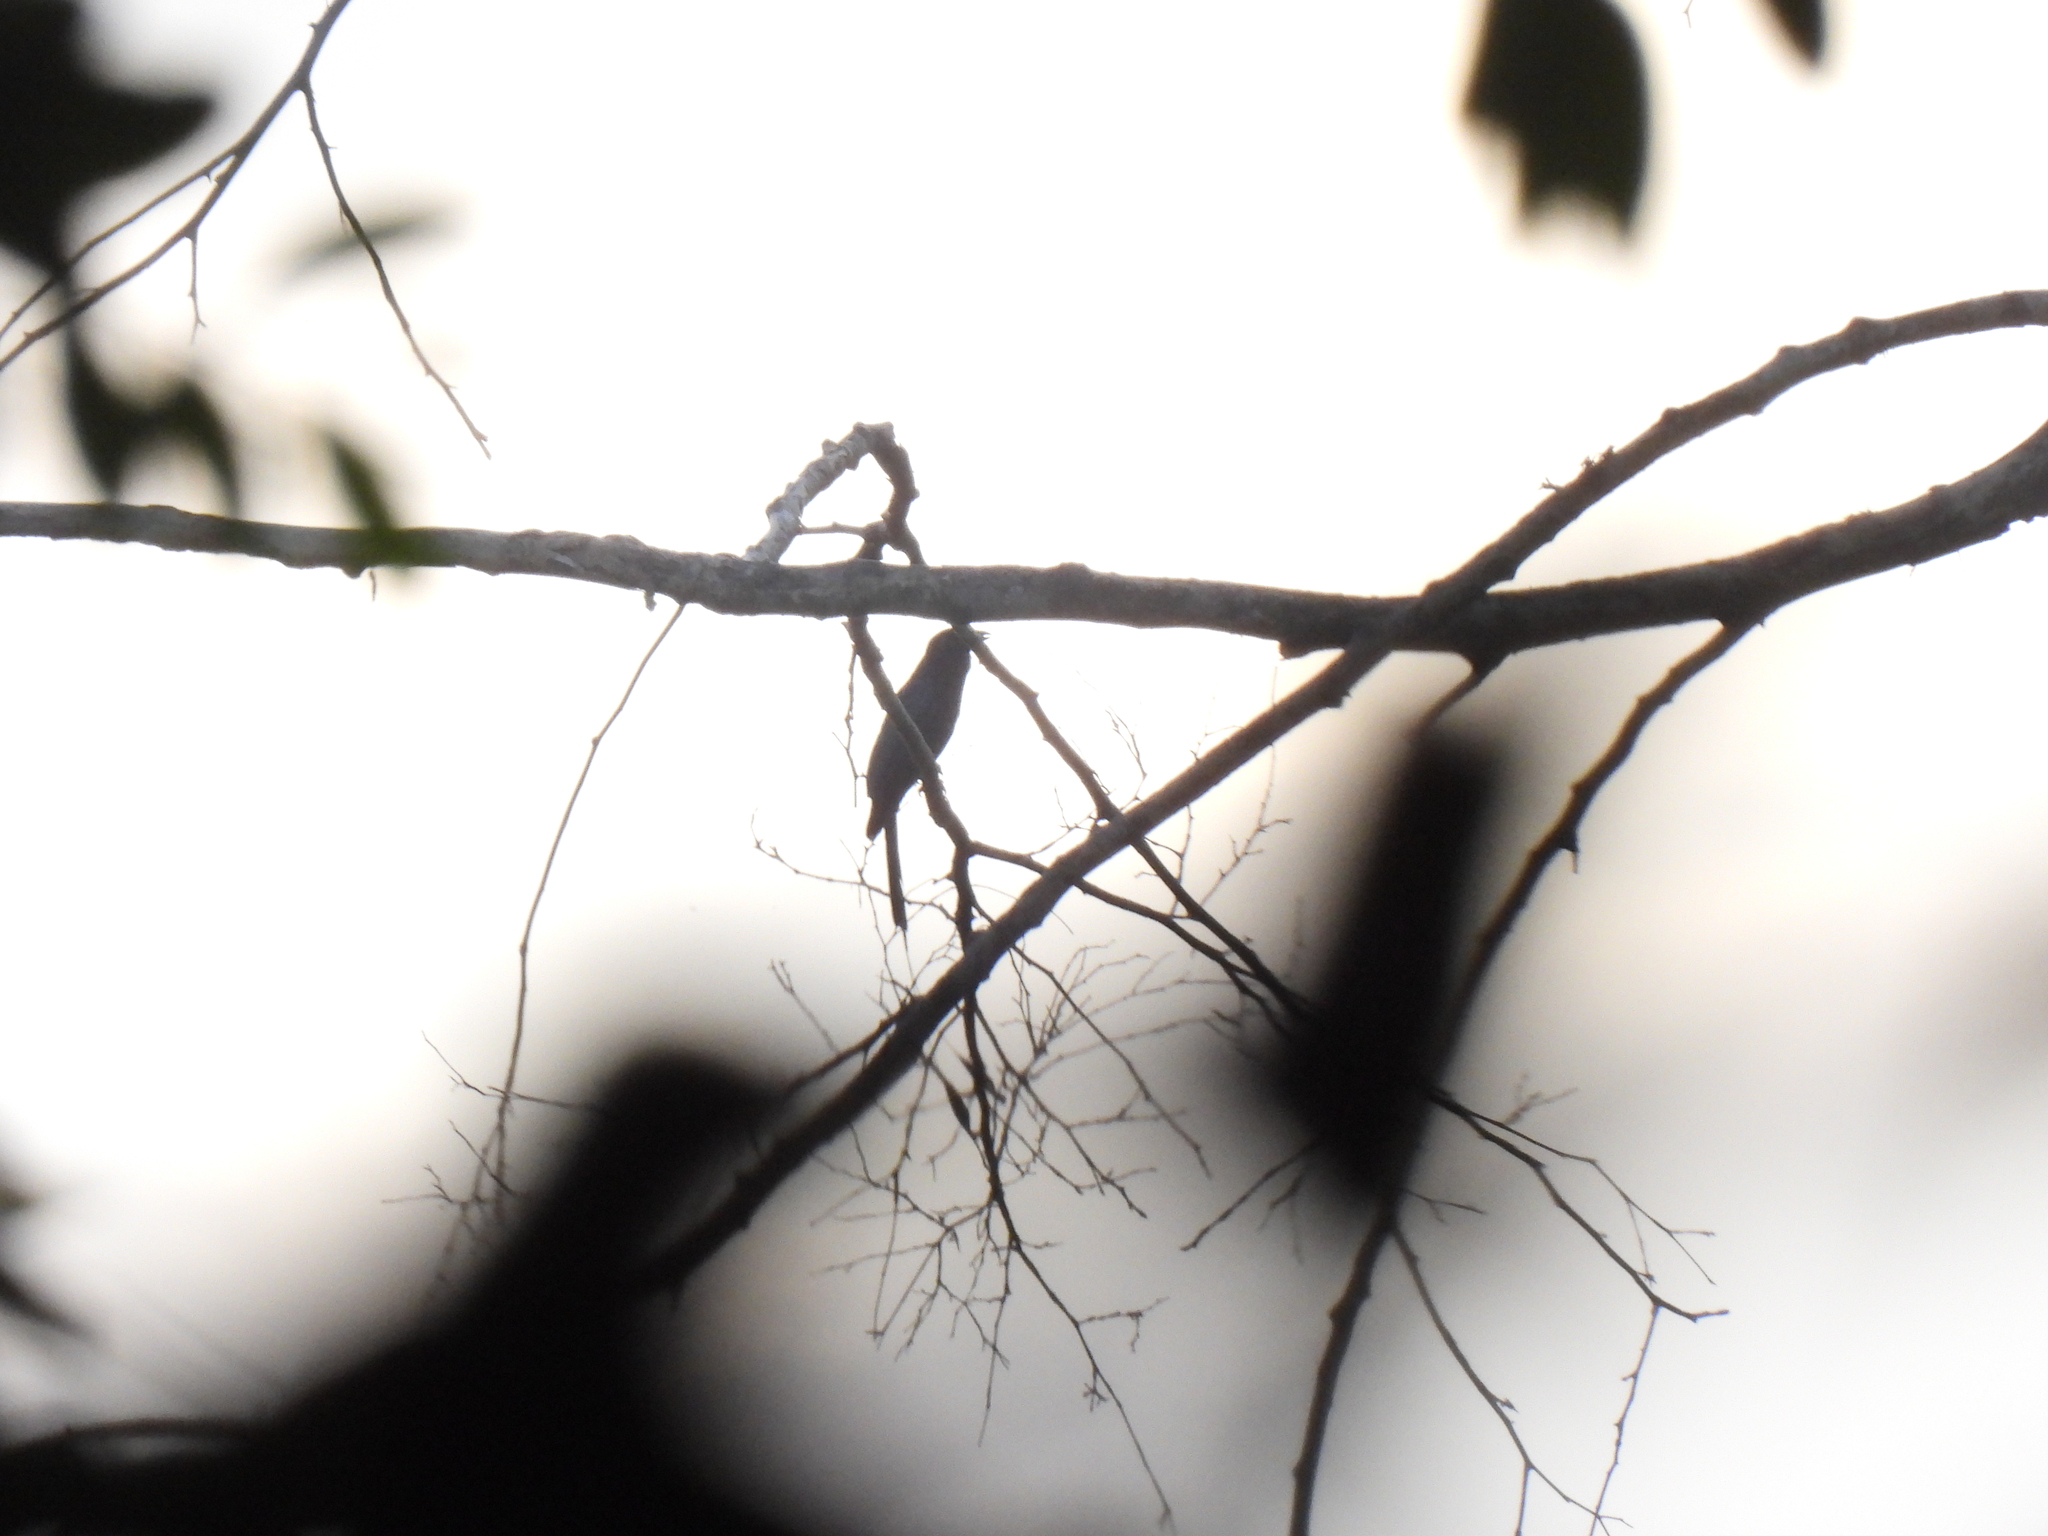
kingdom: Animalia
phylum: Chordata
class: Aves
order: Passeriformes
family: Dicruridae
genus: Dicrurus
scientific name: Dicrurus paradiseus
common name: Greater racket-tailed drongo
